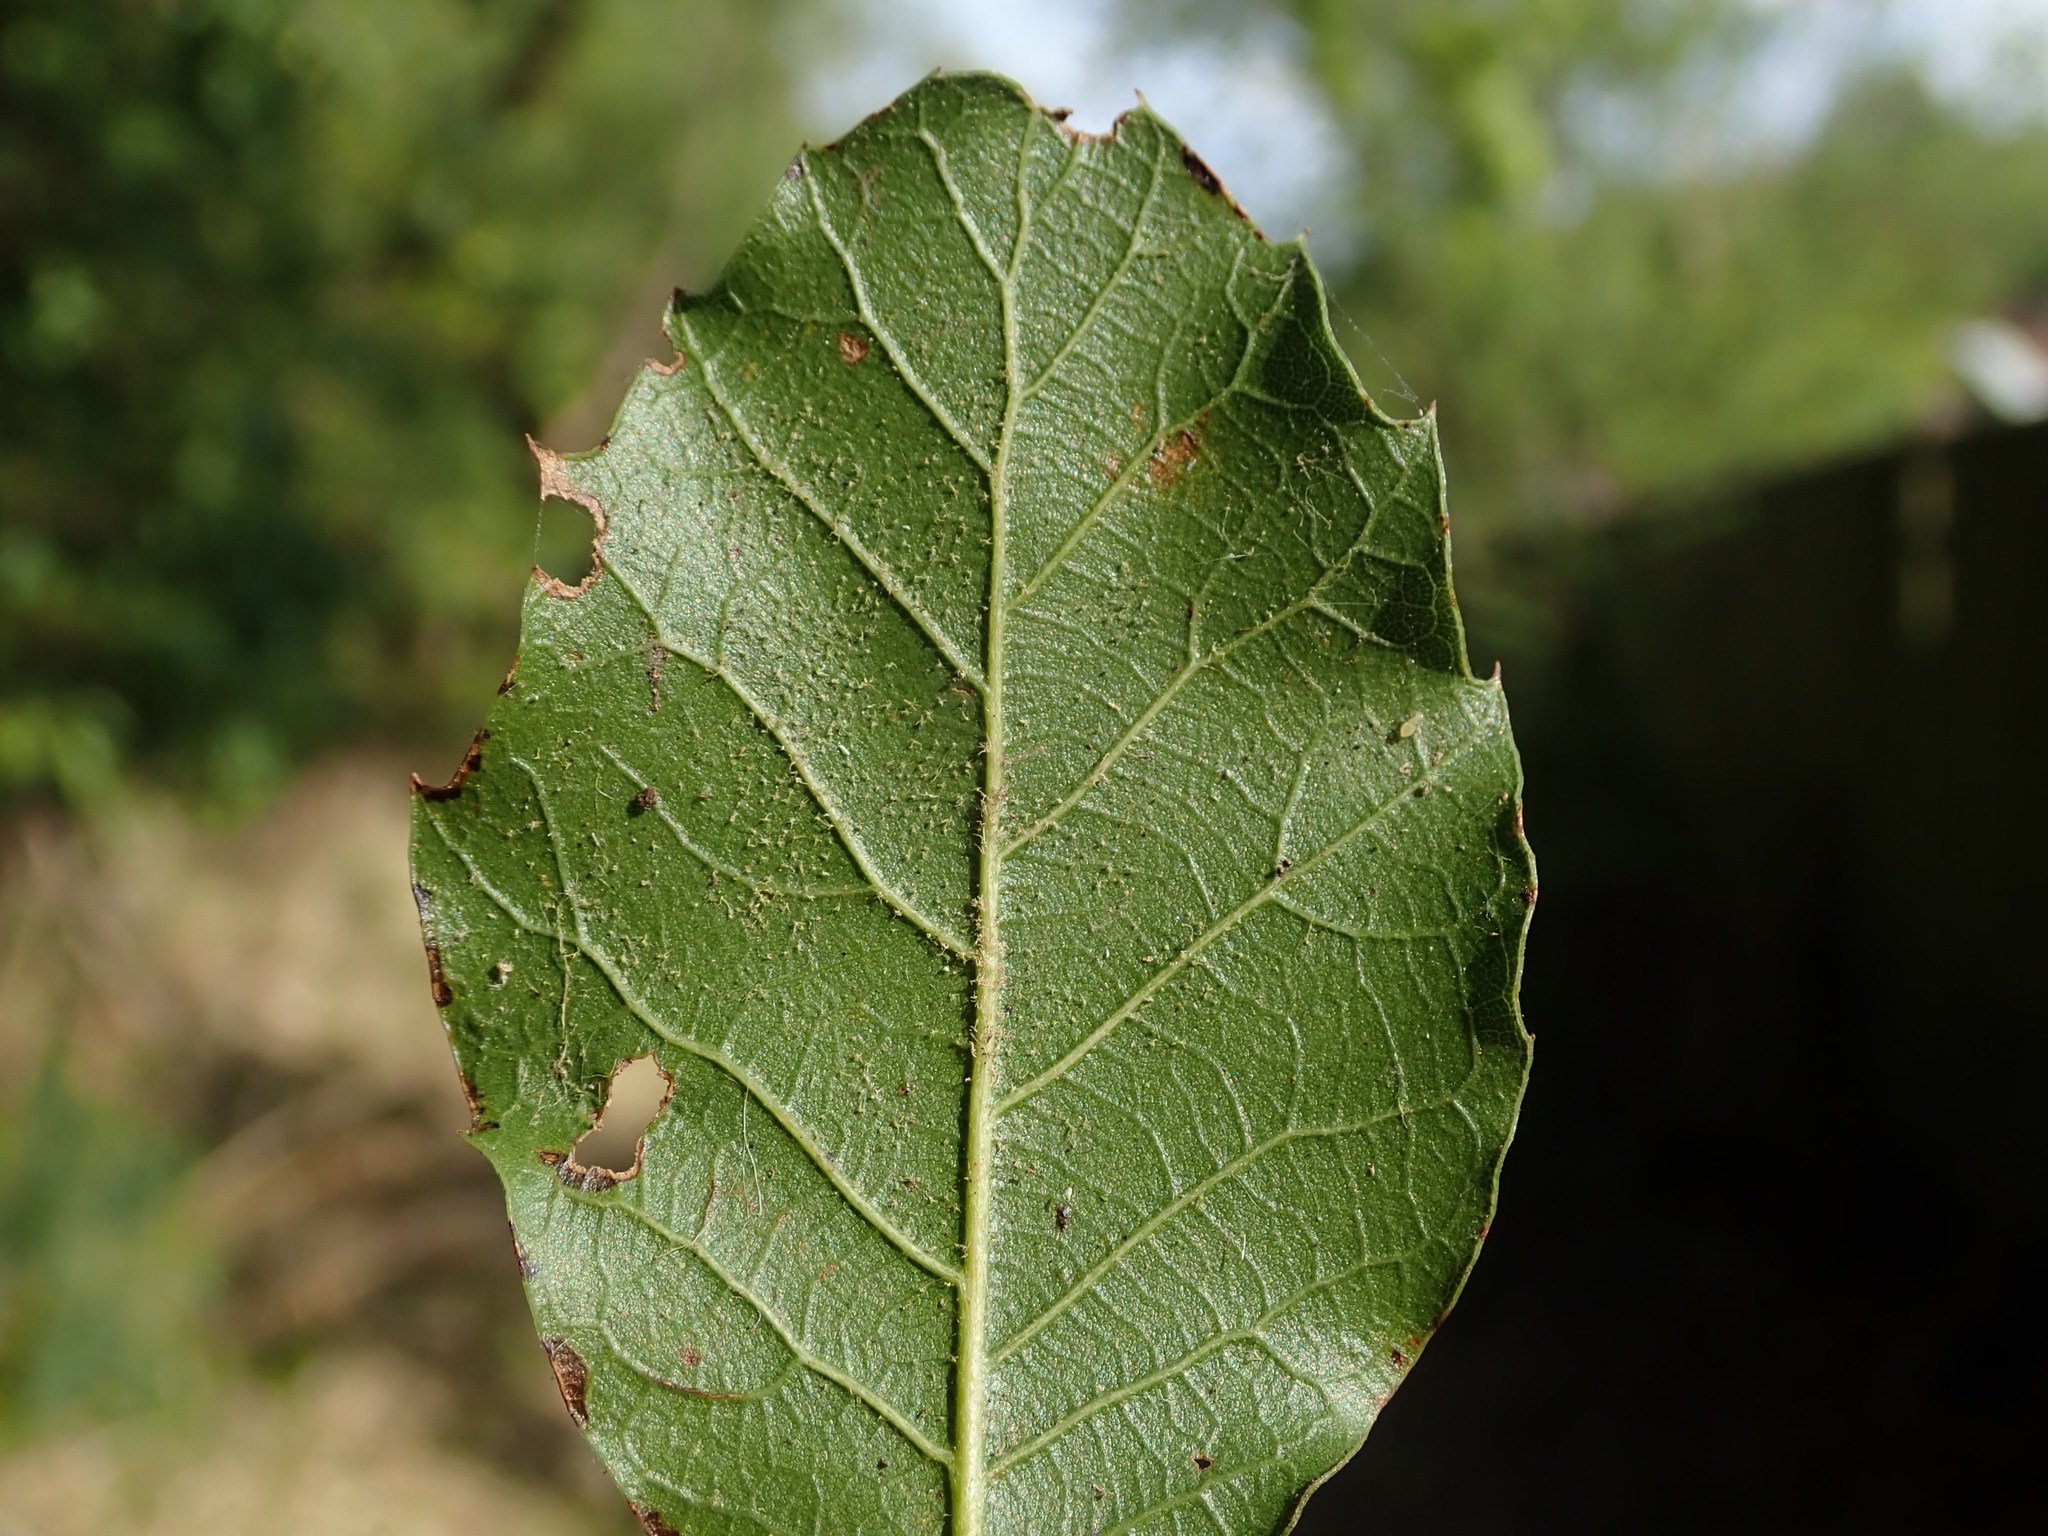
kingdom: Plantae
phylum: Tracheophyta
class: Magnoliopsida
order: Fagales
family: Fagaceae
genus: Quercus
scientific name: Quercus ilex
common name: Evergreen oak
